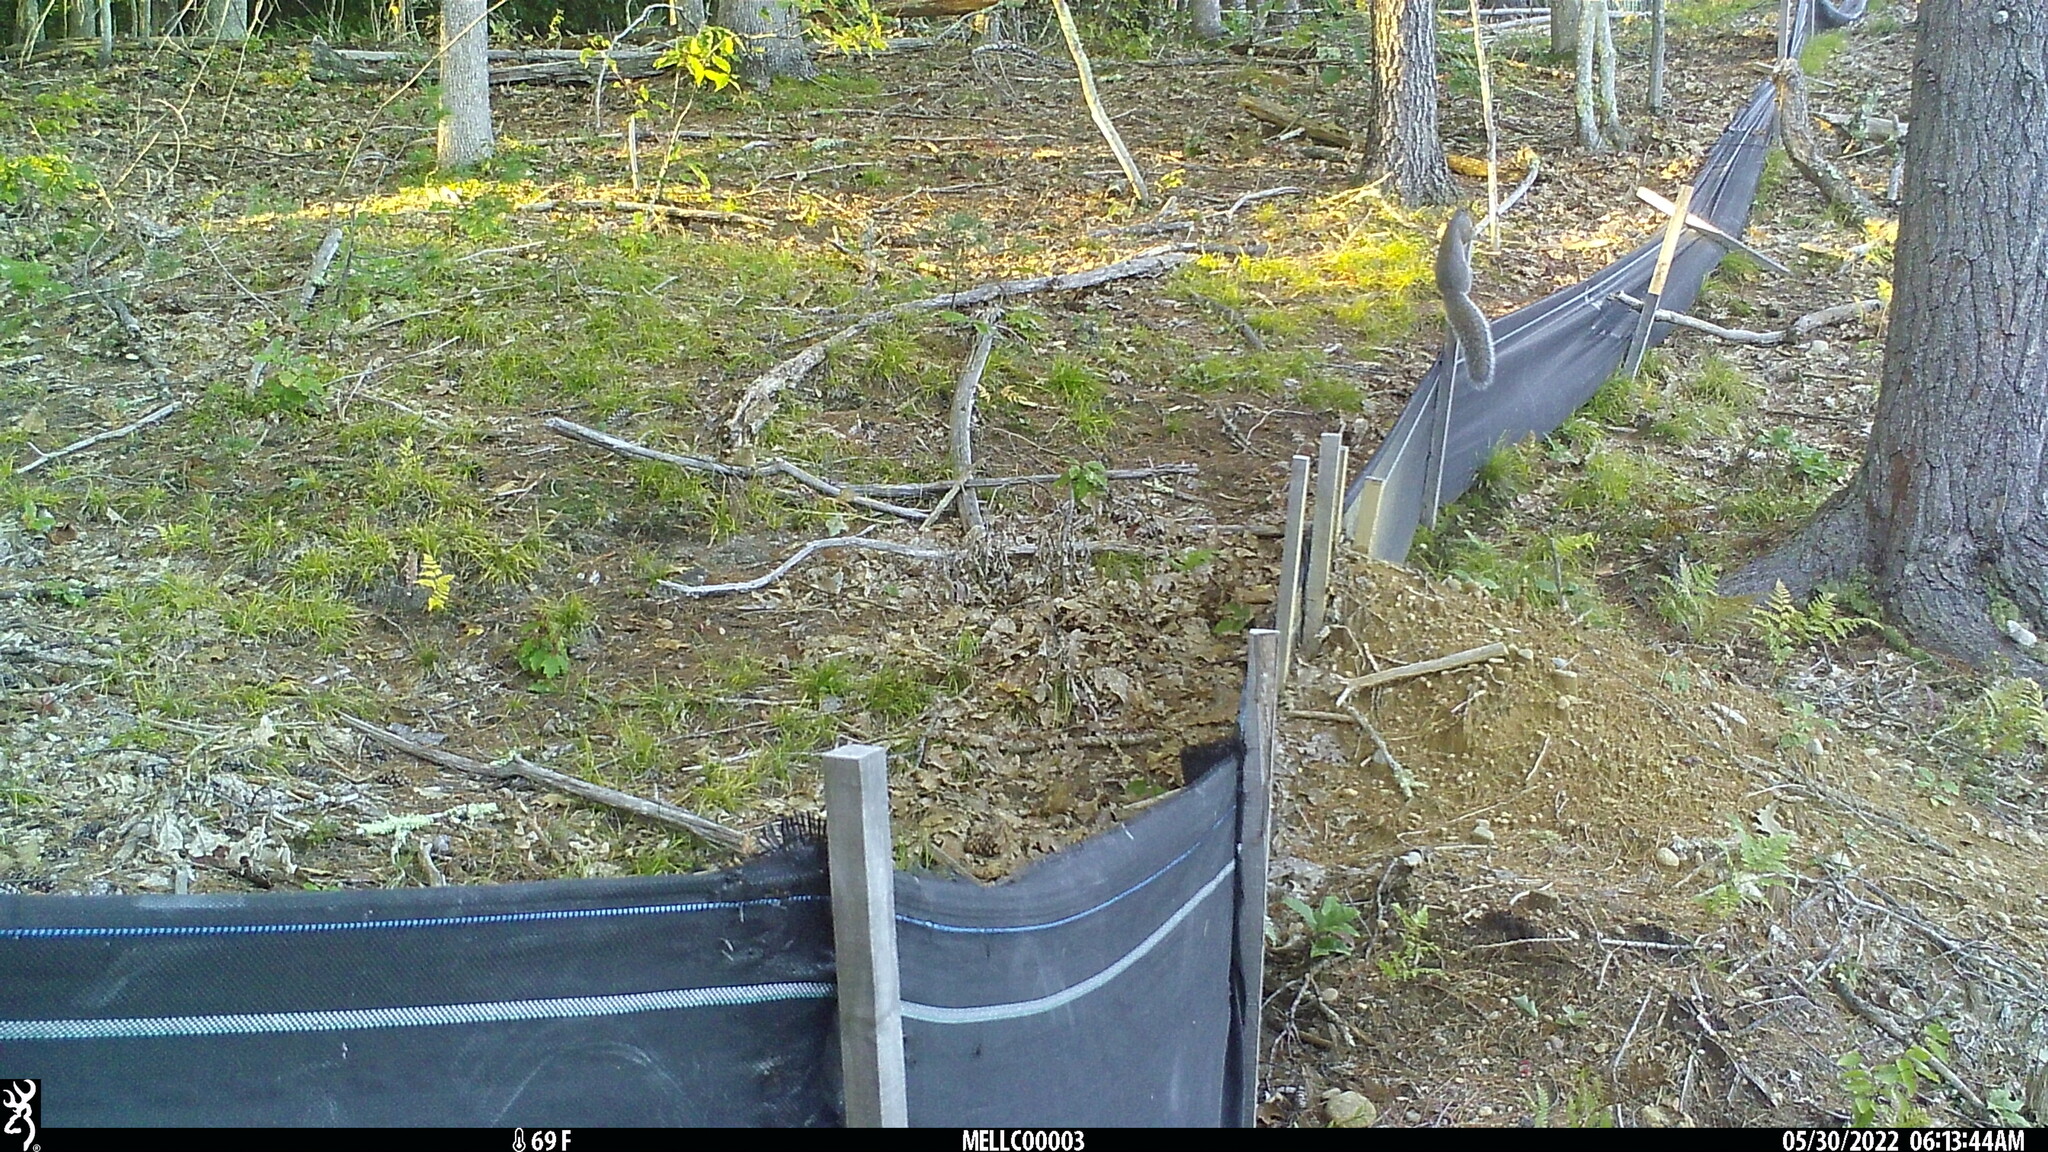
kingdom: Animalia
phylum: Chordata
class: Mammalia
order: Rodentia
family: Sciuridae
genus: Sciurus
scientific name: Sciurus carolinensis
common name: Eastern gray squirrel
